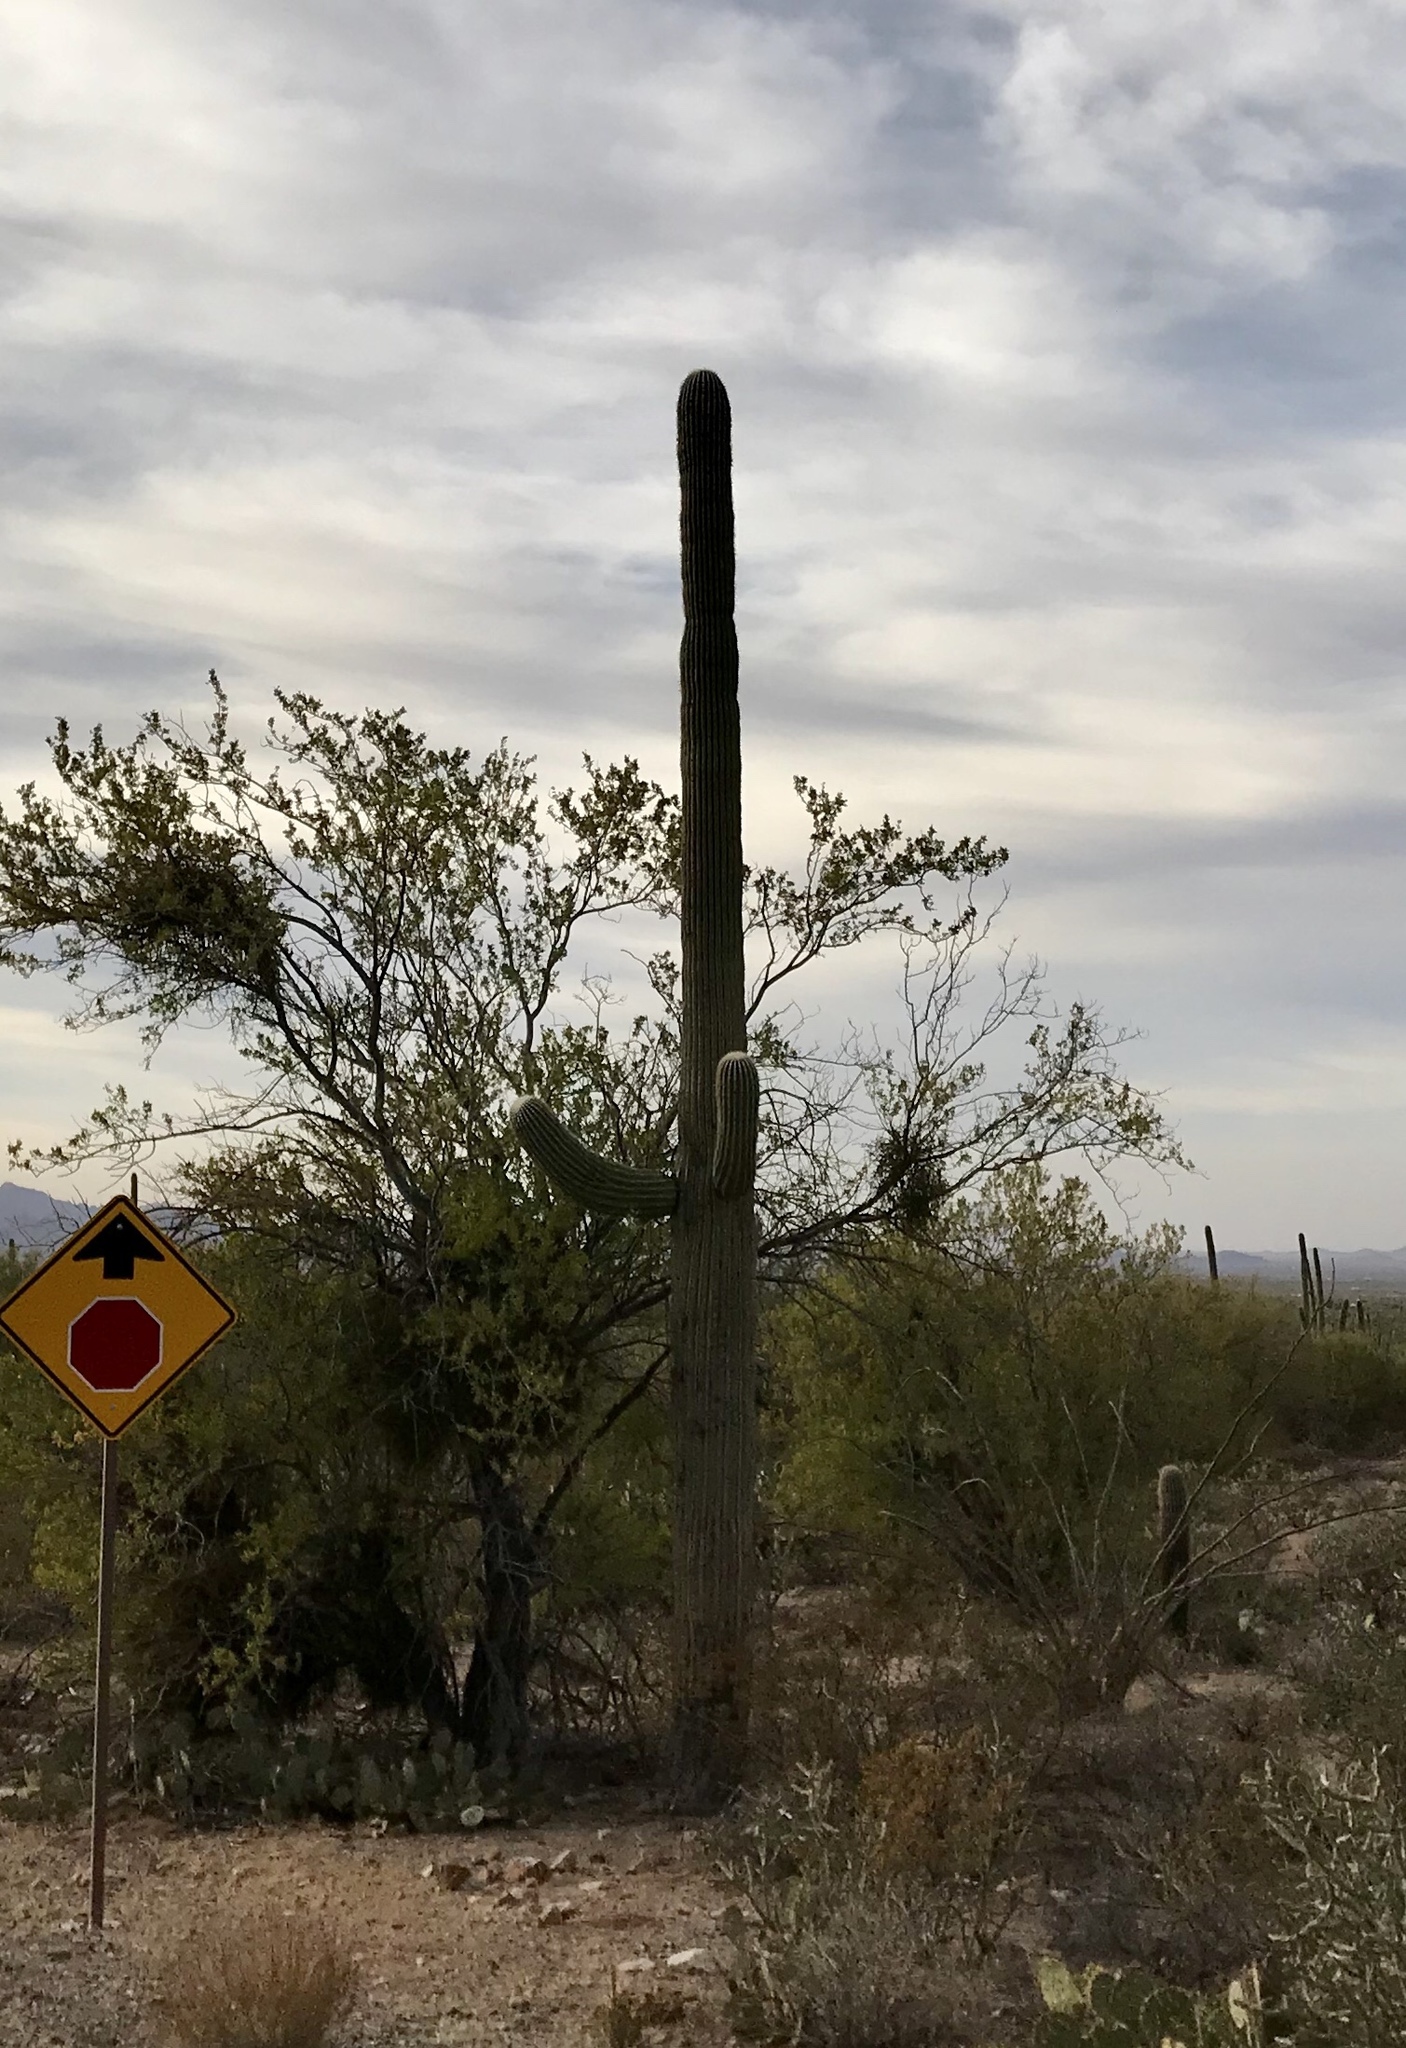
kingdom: Plantae
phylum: Tracheophyta
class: Magnoliopsida
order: Caryophyllales
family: Cactaceae
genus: Carnegiea
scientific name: Carnegiea gigantea
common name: Saguaro
